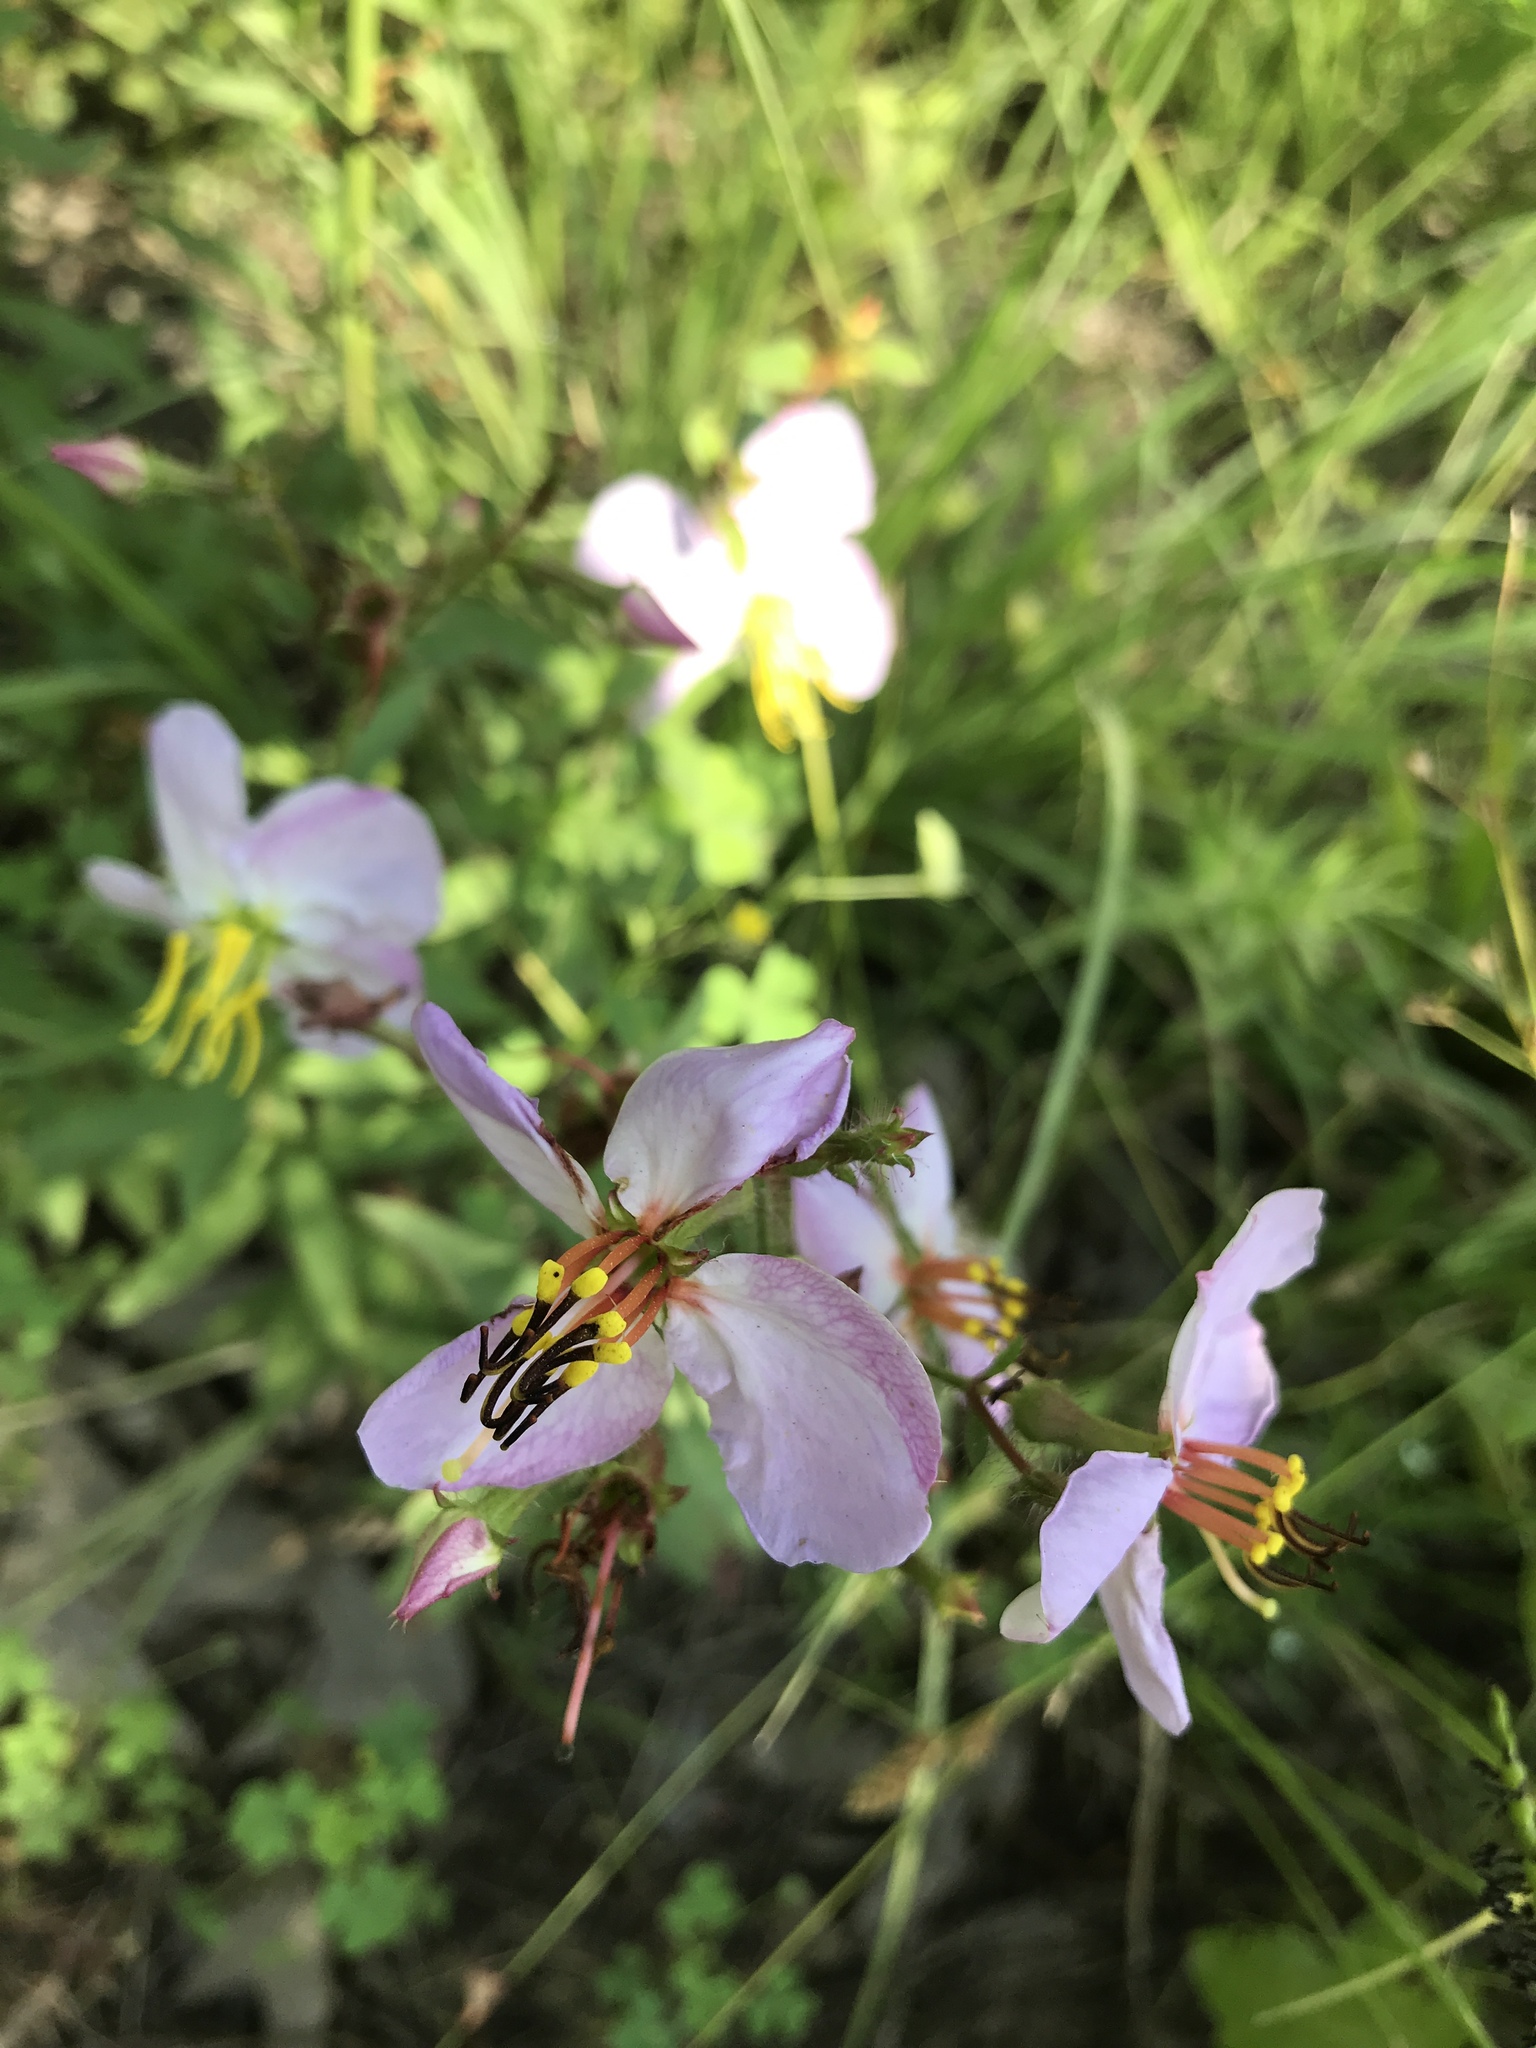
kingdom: Plantae
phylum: Tracheophyta
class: Magnoliopsida
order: Myrtales
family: Melastomataceae
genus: Rhexia
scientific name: Rhexia mariana
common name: Dull meadow-pitcher
